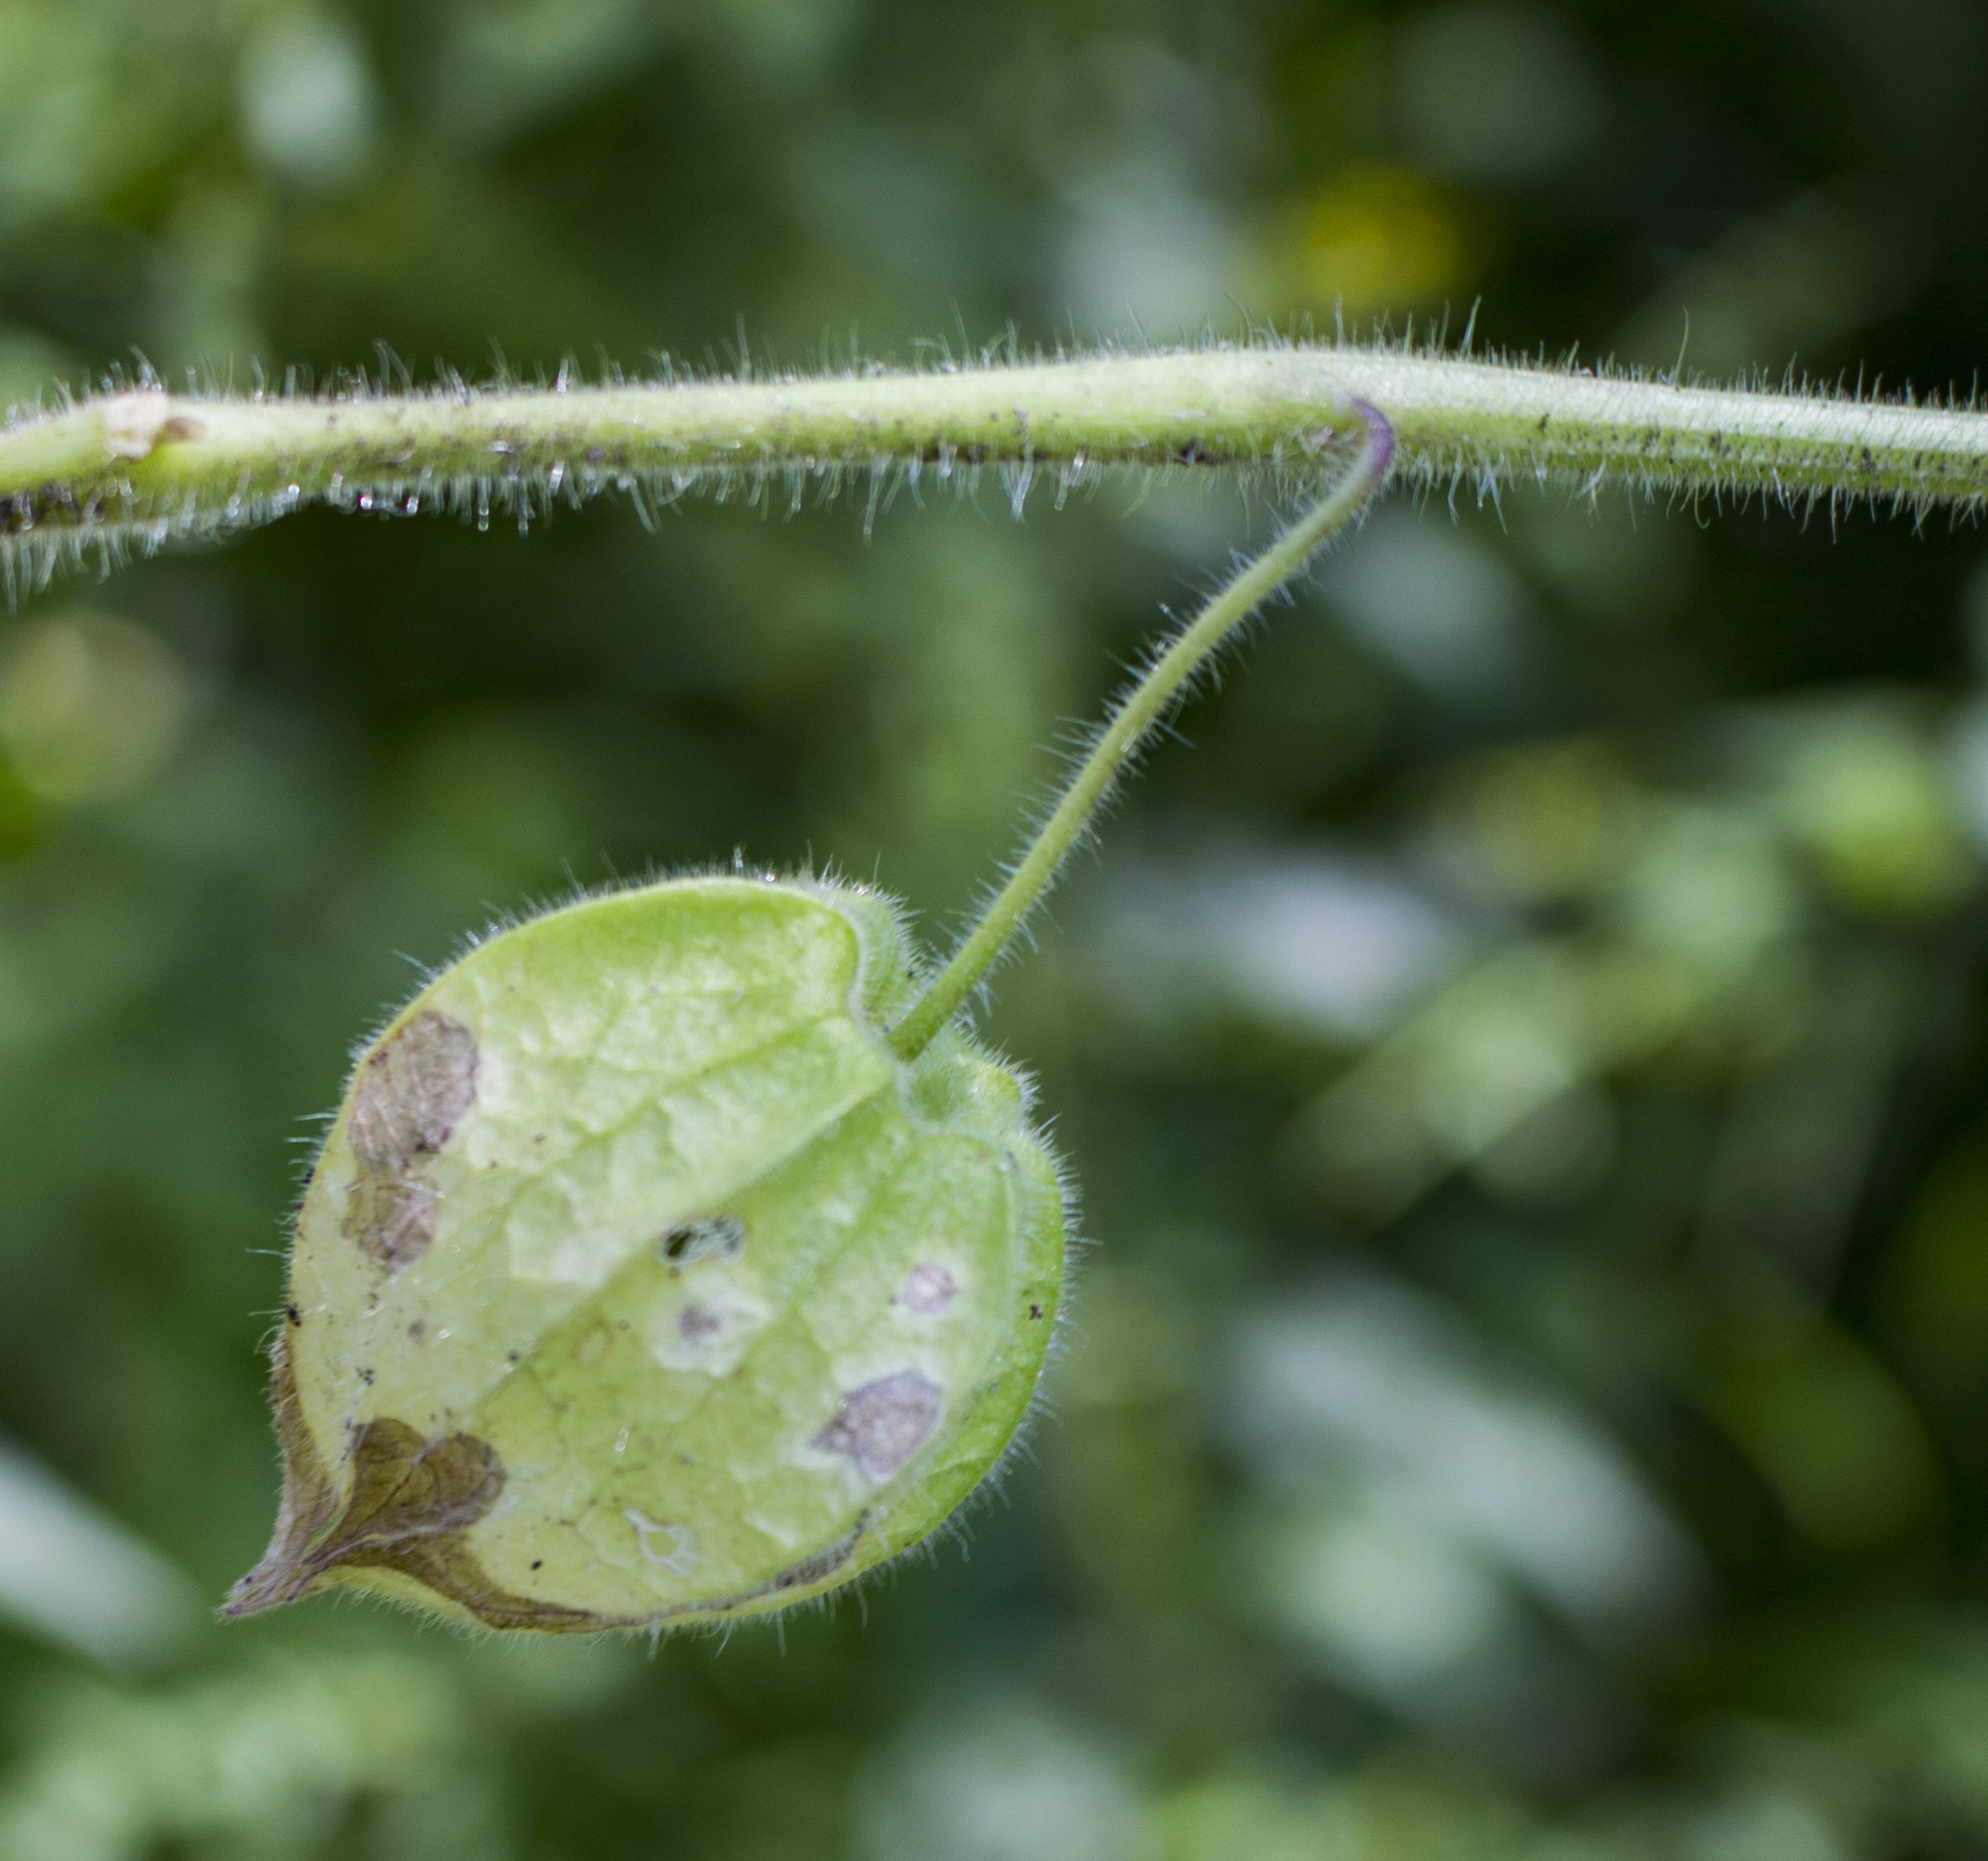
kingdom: Plantae
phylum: Tracheophyta
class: Magnoliopsida
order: Solanales
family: Solanaceae
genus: Physalis
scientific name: Physalis heterophylla
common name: Clammy ground-cherry
